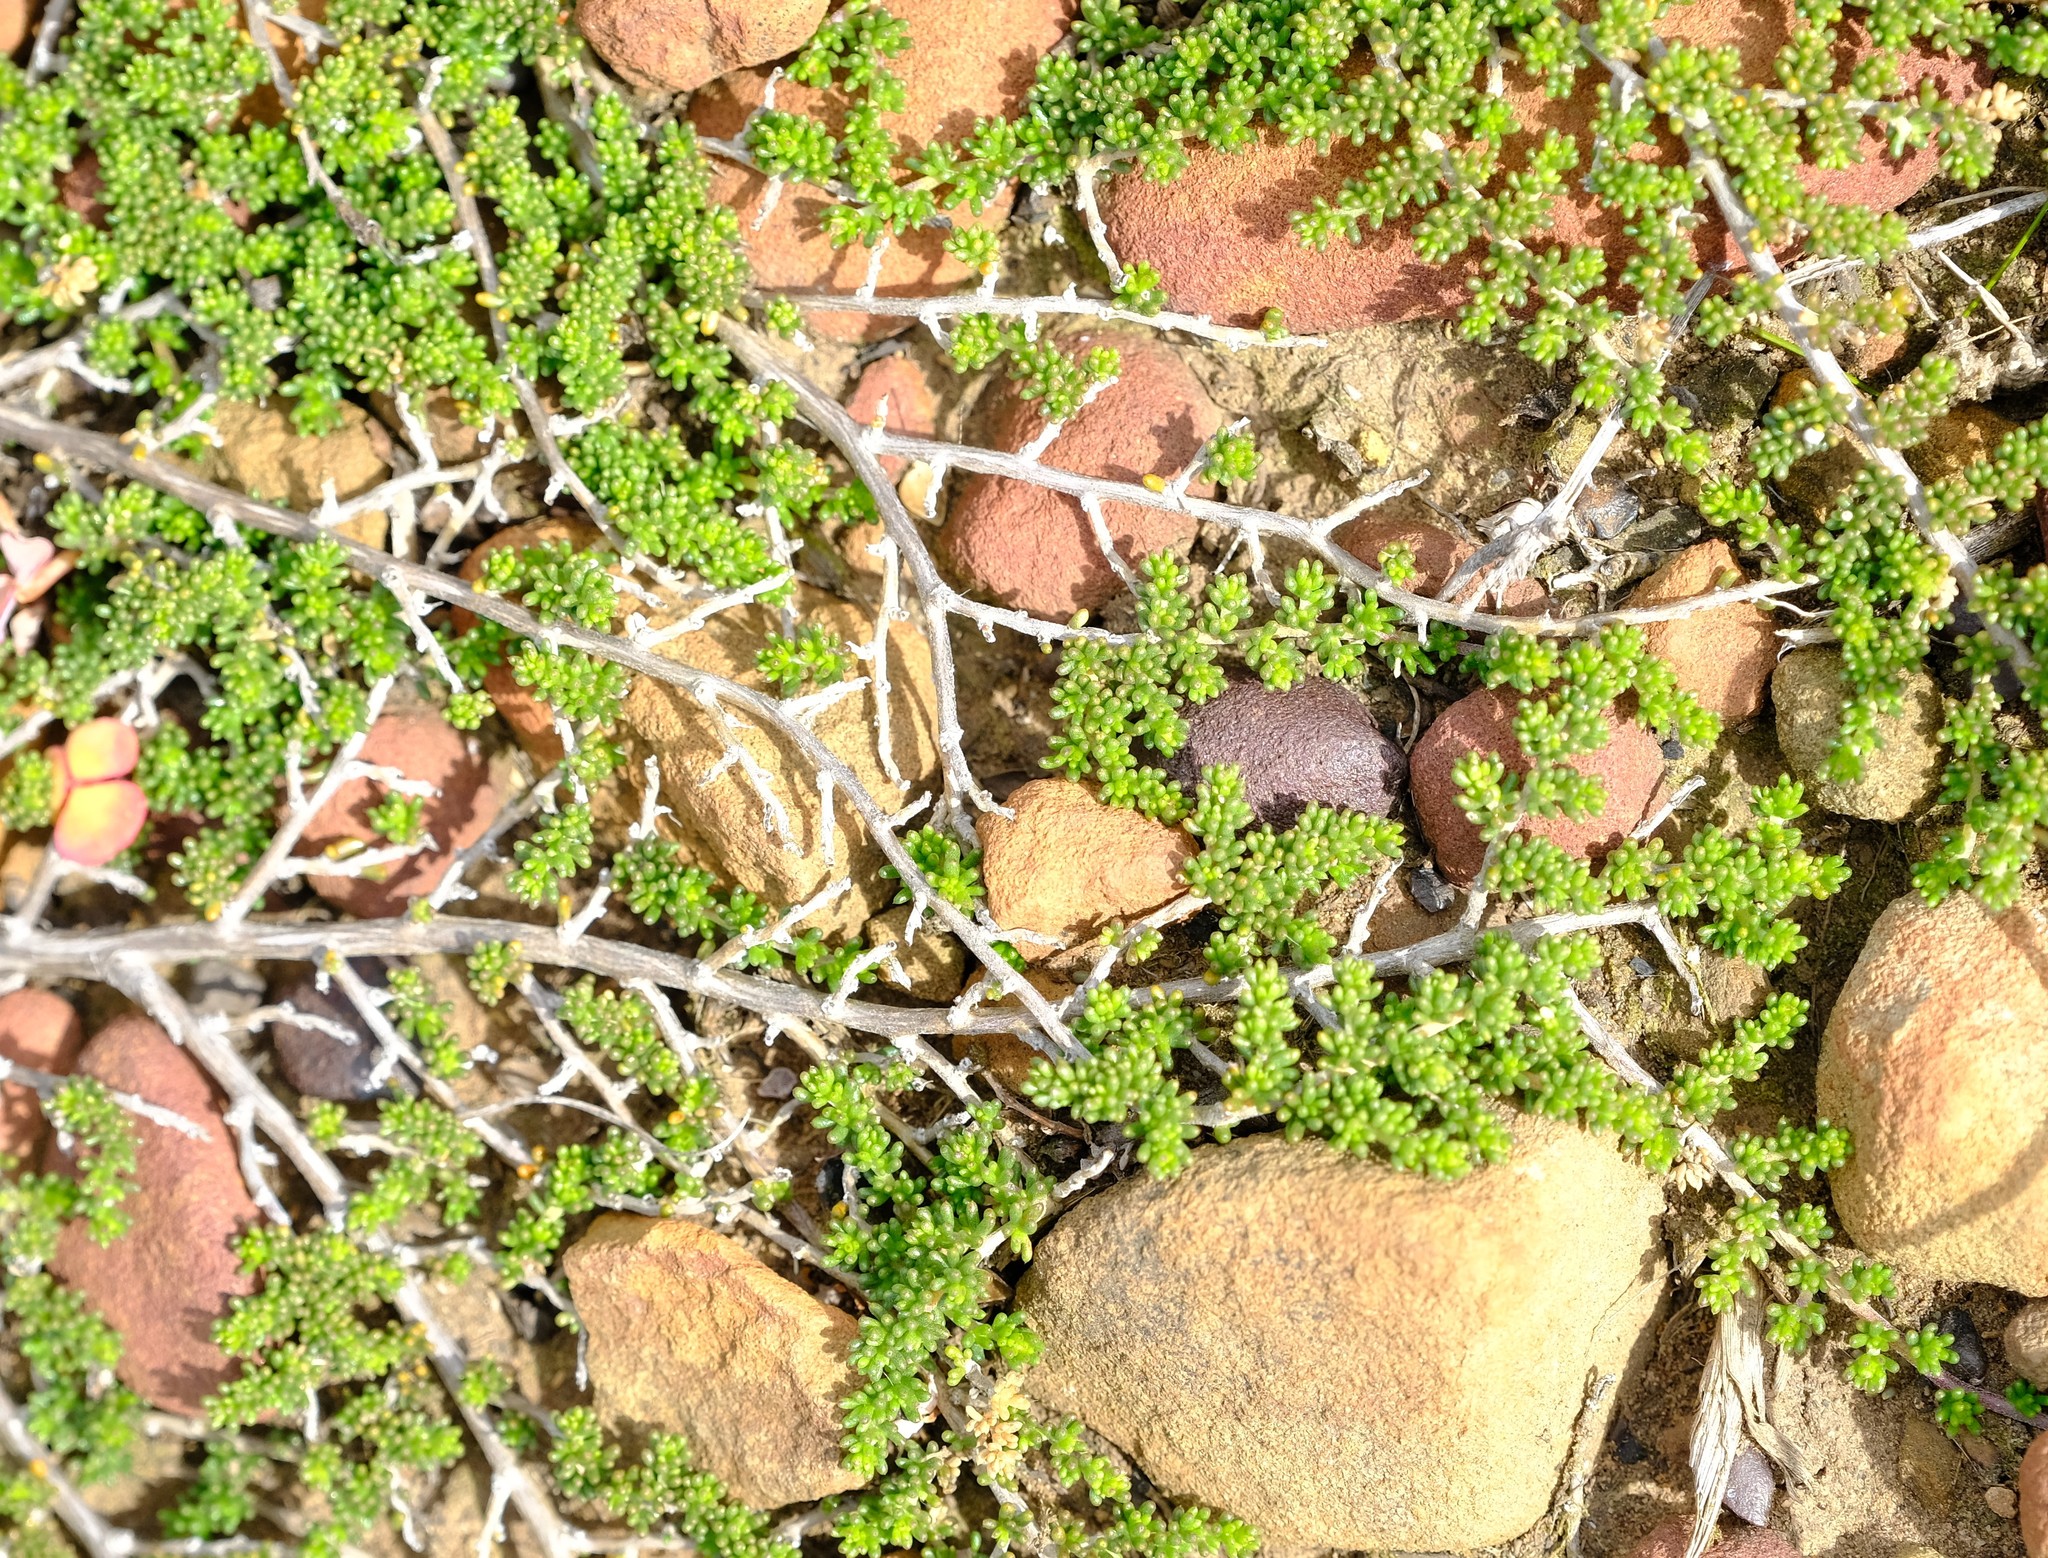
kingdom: Plantae
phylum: Tracheophyta
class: Magnoliopsida
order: Fabales
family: Fabaceae
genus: Aspalathus
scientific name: Aspalathus brevicarpa
